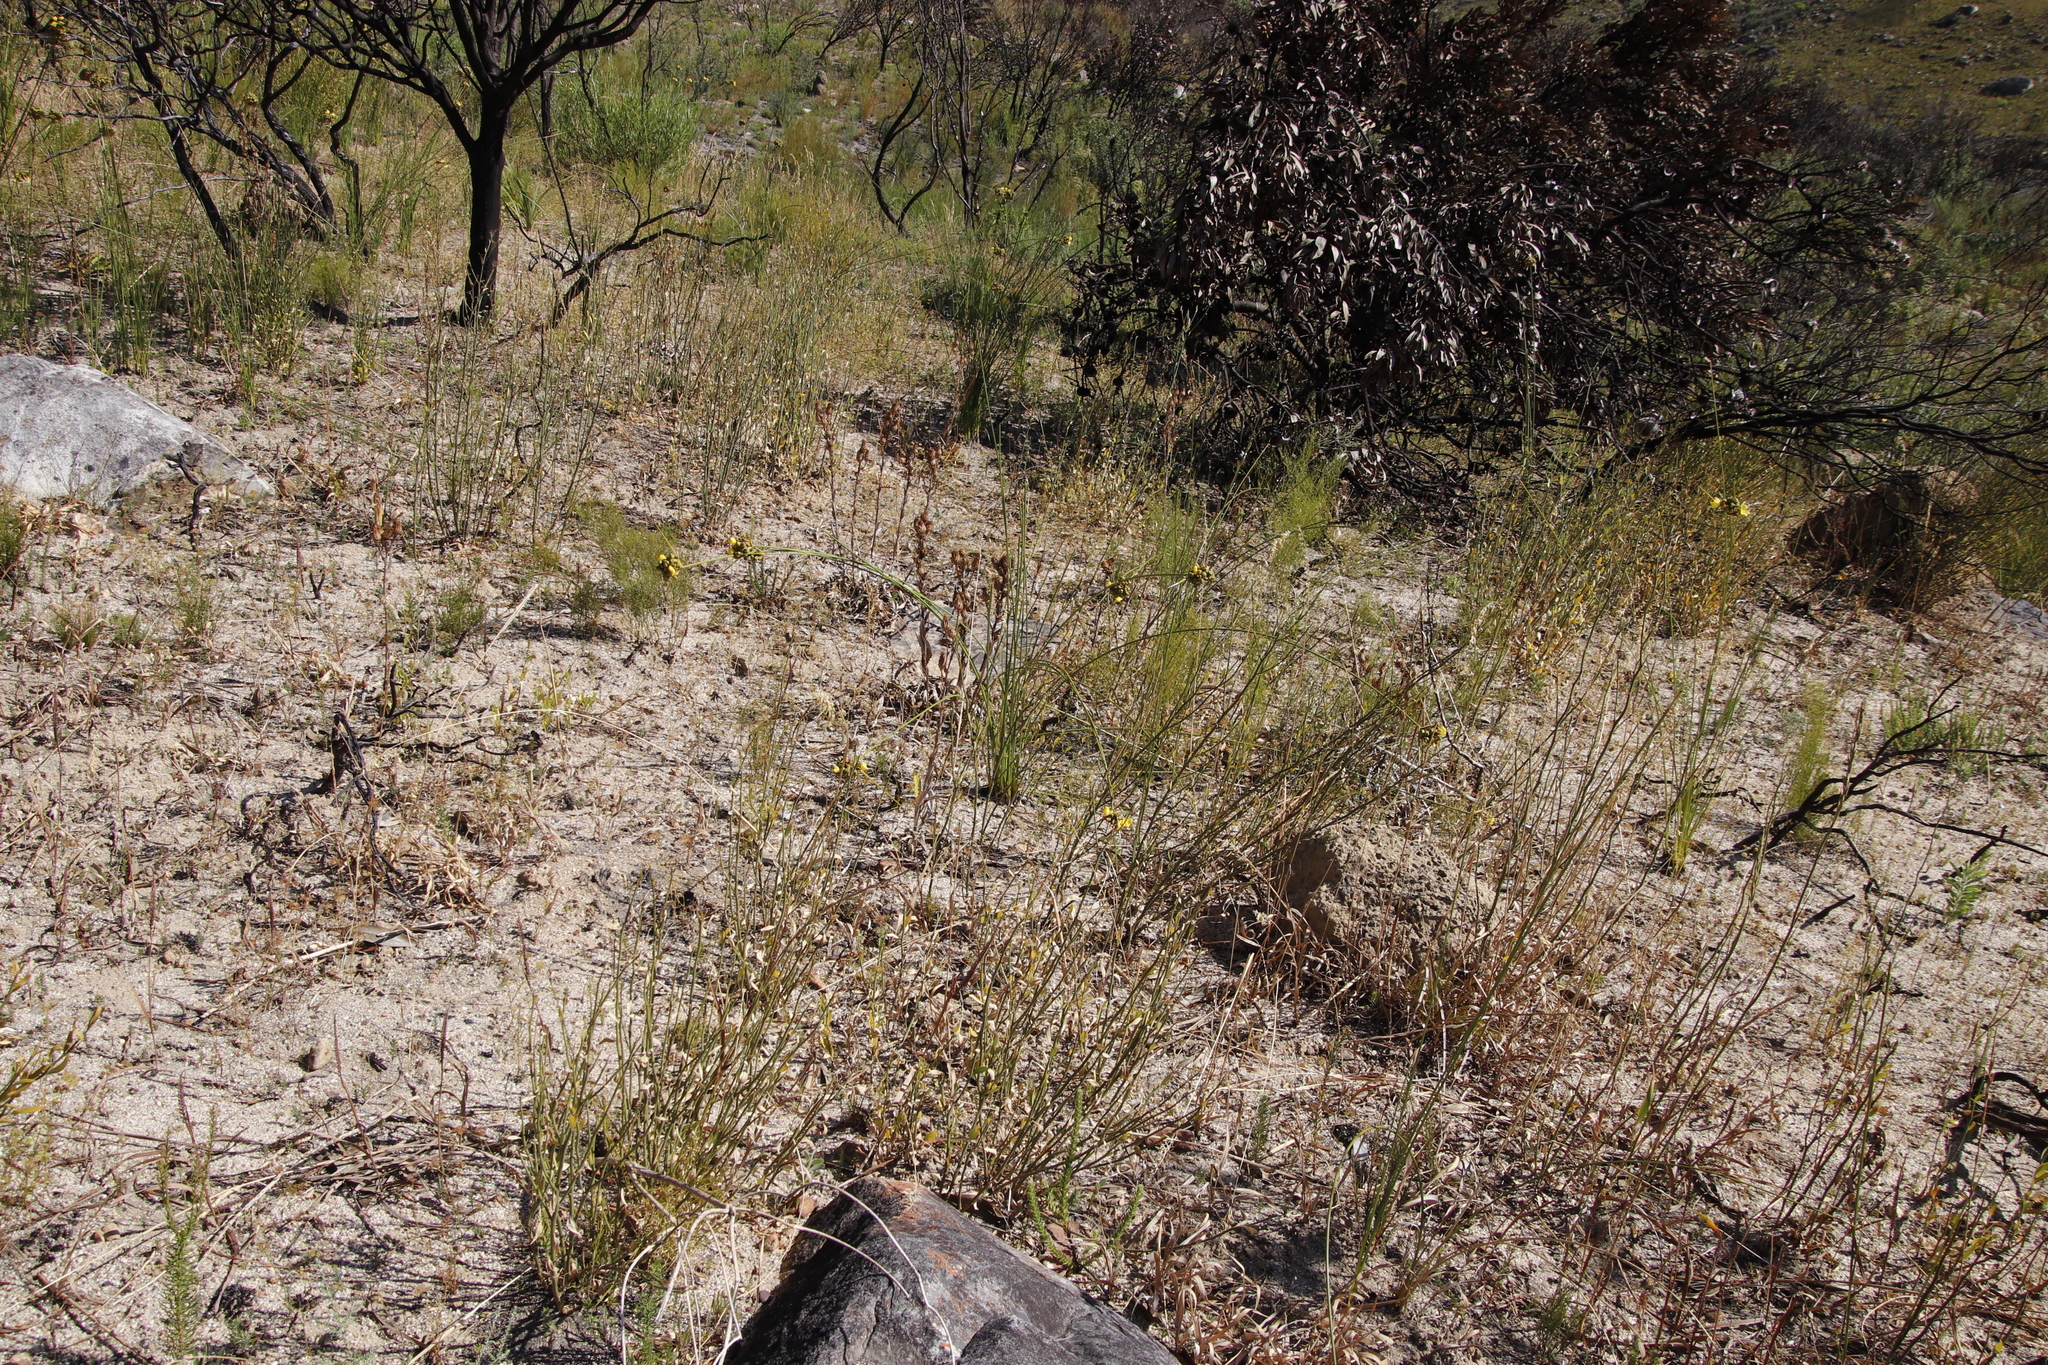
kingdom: Plantae
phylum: Tracheophyta
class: Magnoliopsida
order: Solanales
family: Montiniaceae
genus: Montinia
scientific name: Montinia caryophyllacea
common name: Wild clove-bush
